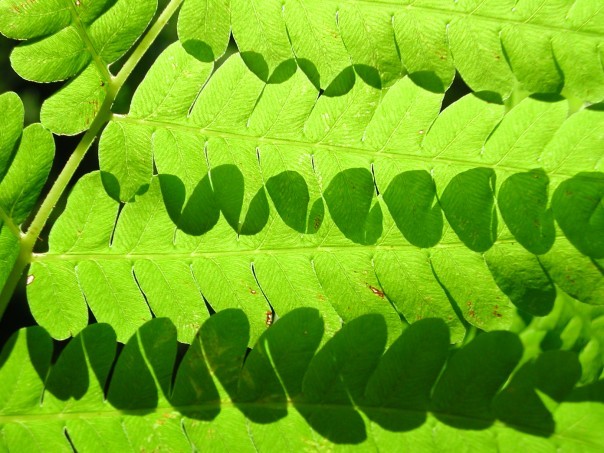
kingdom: Plantae
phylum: Tracheophyta
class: Polypodiopsida
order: Osmundales
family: Osmundaceae
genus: Claytosmunda
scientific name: Claytosmunda claytoniana
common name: Clayton's fern
